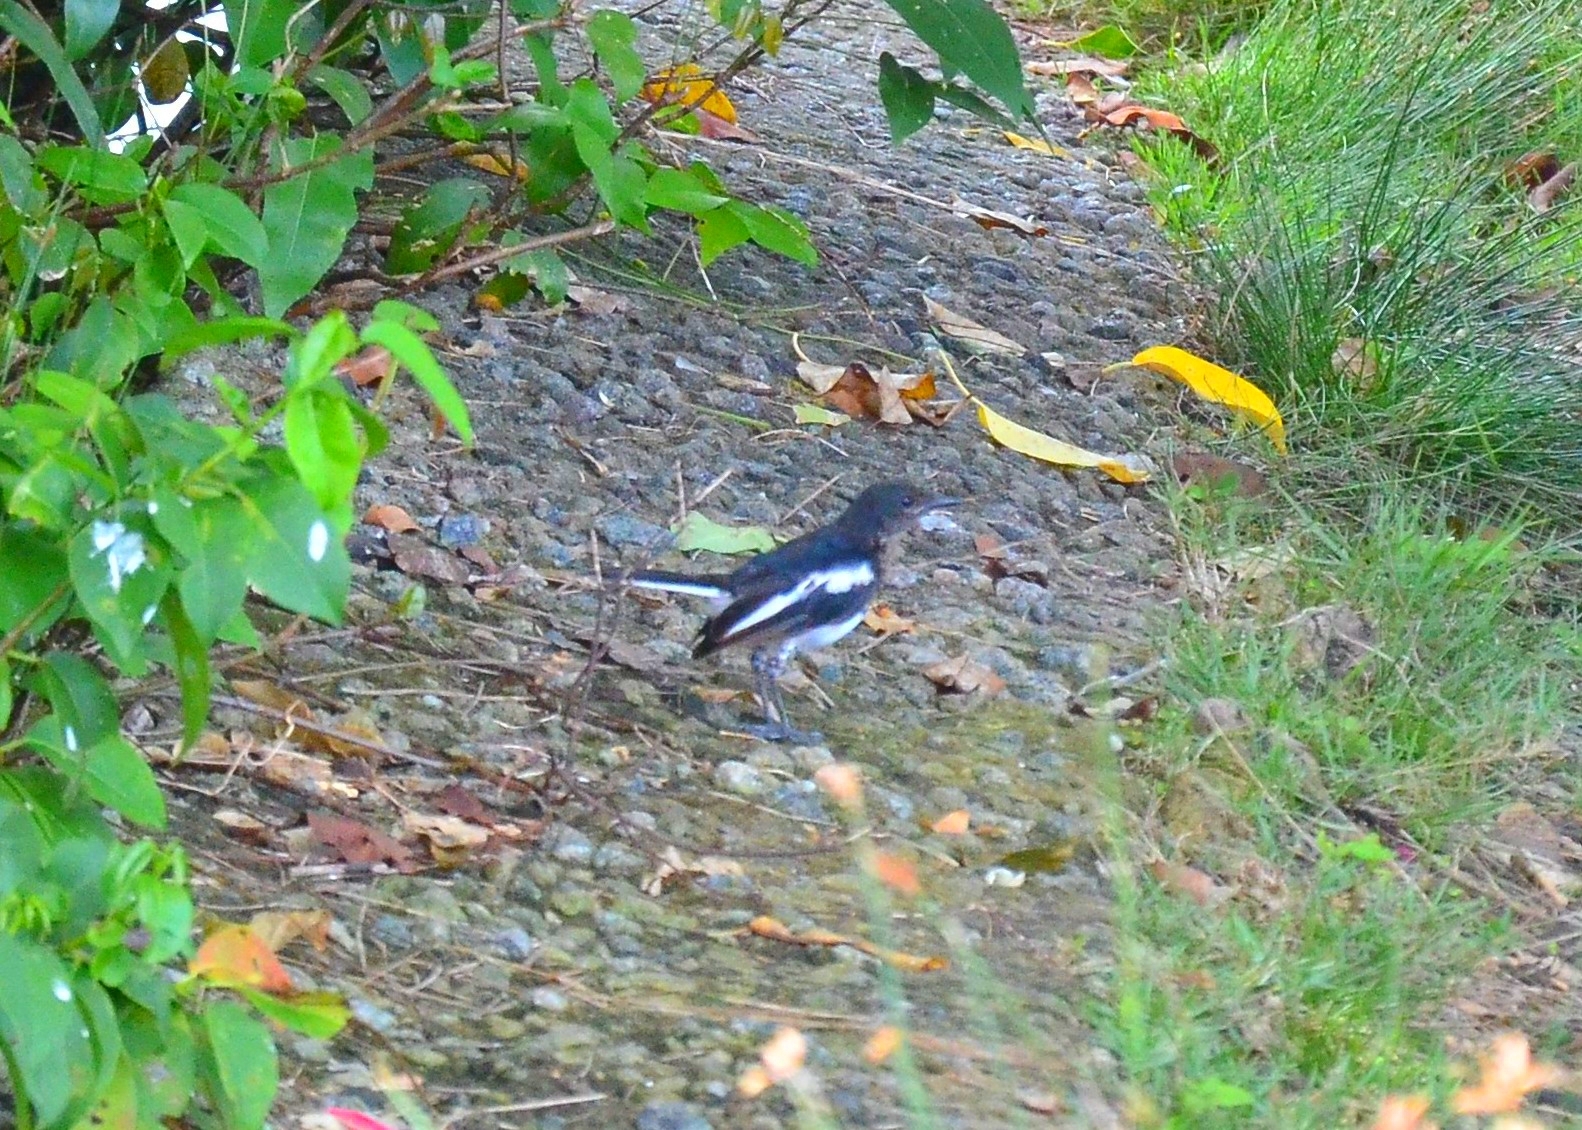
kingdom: Animalia
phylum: Chordata
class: Aves
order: Passeriformes
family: Muscicapidae
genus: Copsychus
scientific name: Copsychus saularis
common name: Oriental magpie-robin
